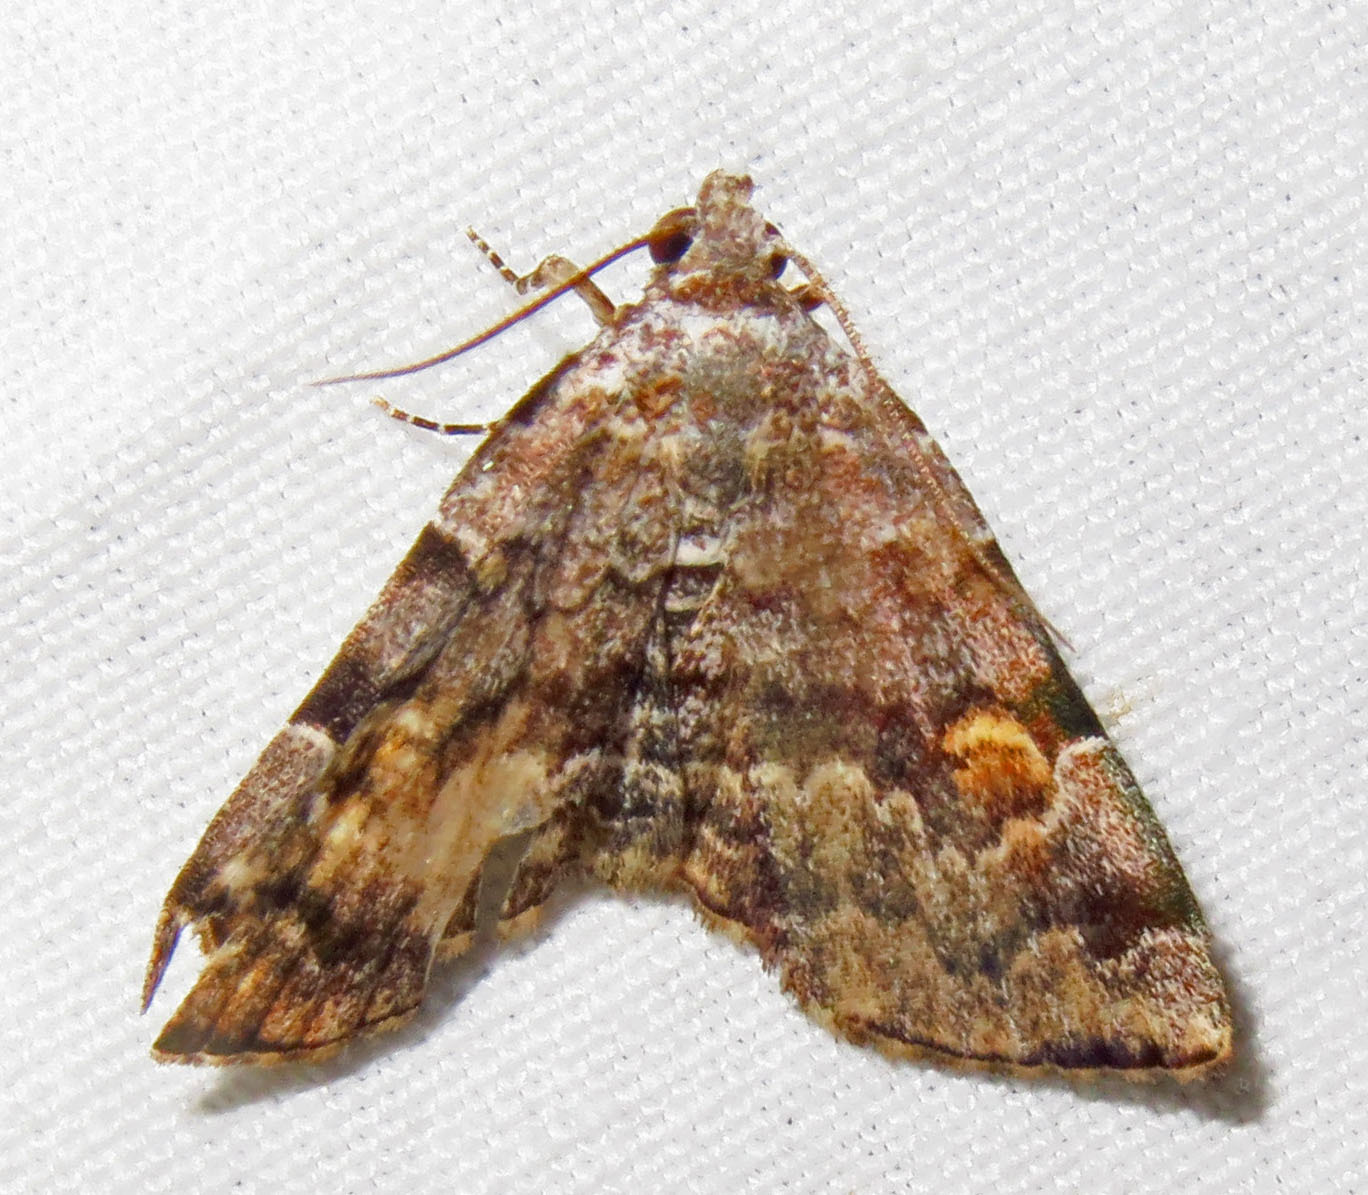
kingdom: Animalia
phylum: Arthropoda
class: Insecta
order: Lepidoptera
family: Erebidae
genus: Idia
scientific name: Idia americalis
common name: American idia moth
